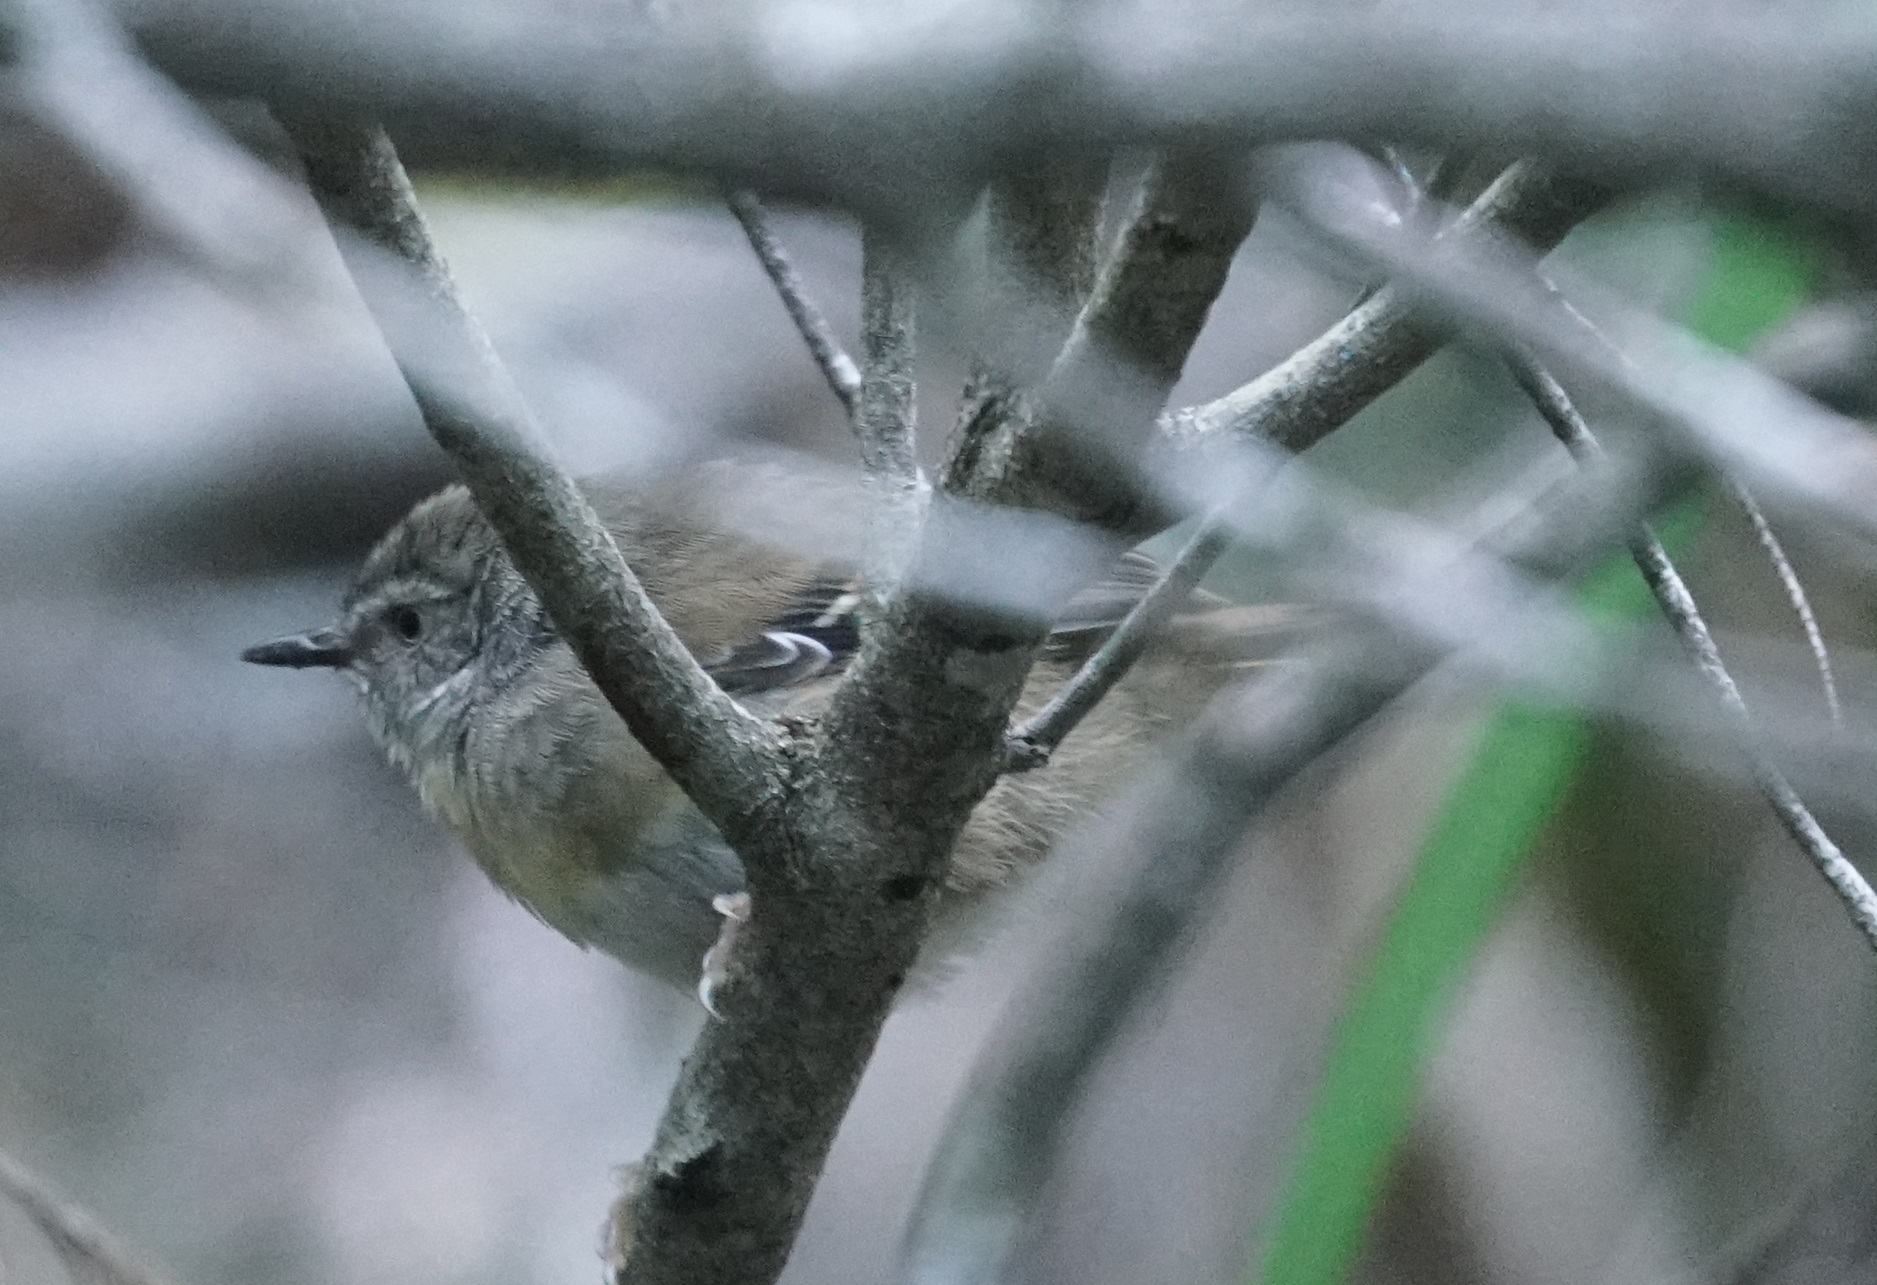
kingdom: Animalia
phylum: Chordata
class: Aves
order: Passeriformes
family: Acanthizidae
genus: Sericornis
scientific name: Sericornis frontalis
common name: White-browed scrubwren
